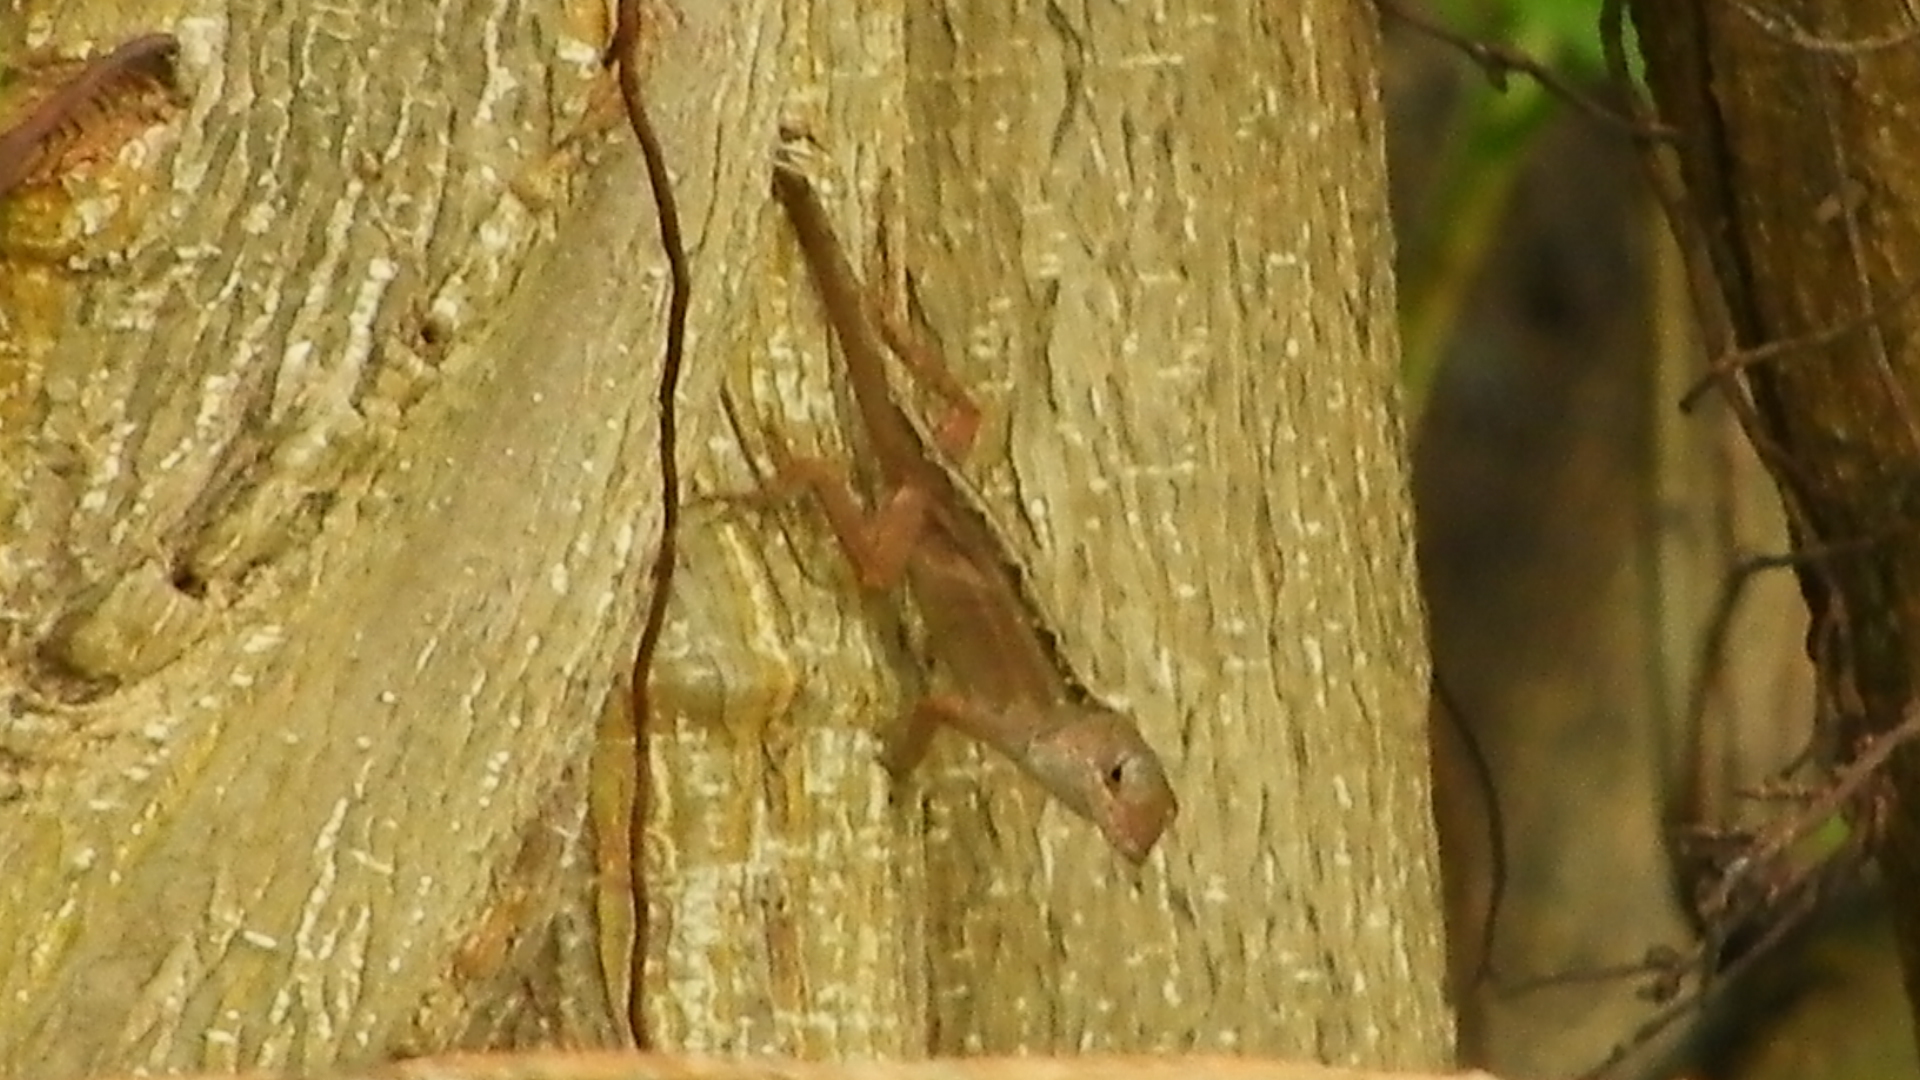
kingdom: Animalia
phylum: Chordata
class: Squamata
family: Dactyloidae
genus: Anolis
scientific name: Anolis sagrei
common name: Brown anole
